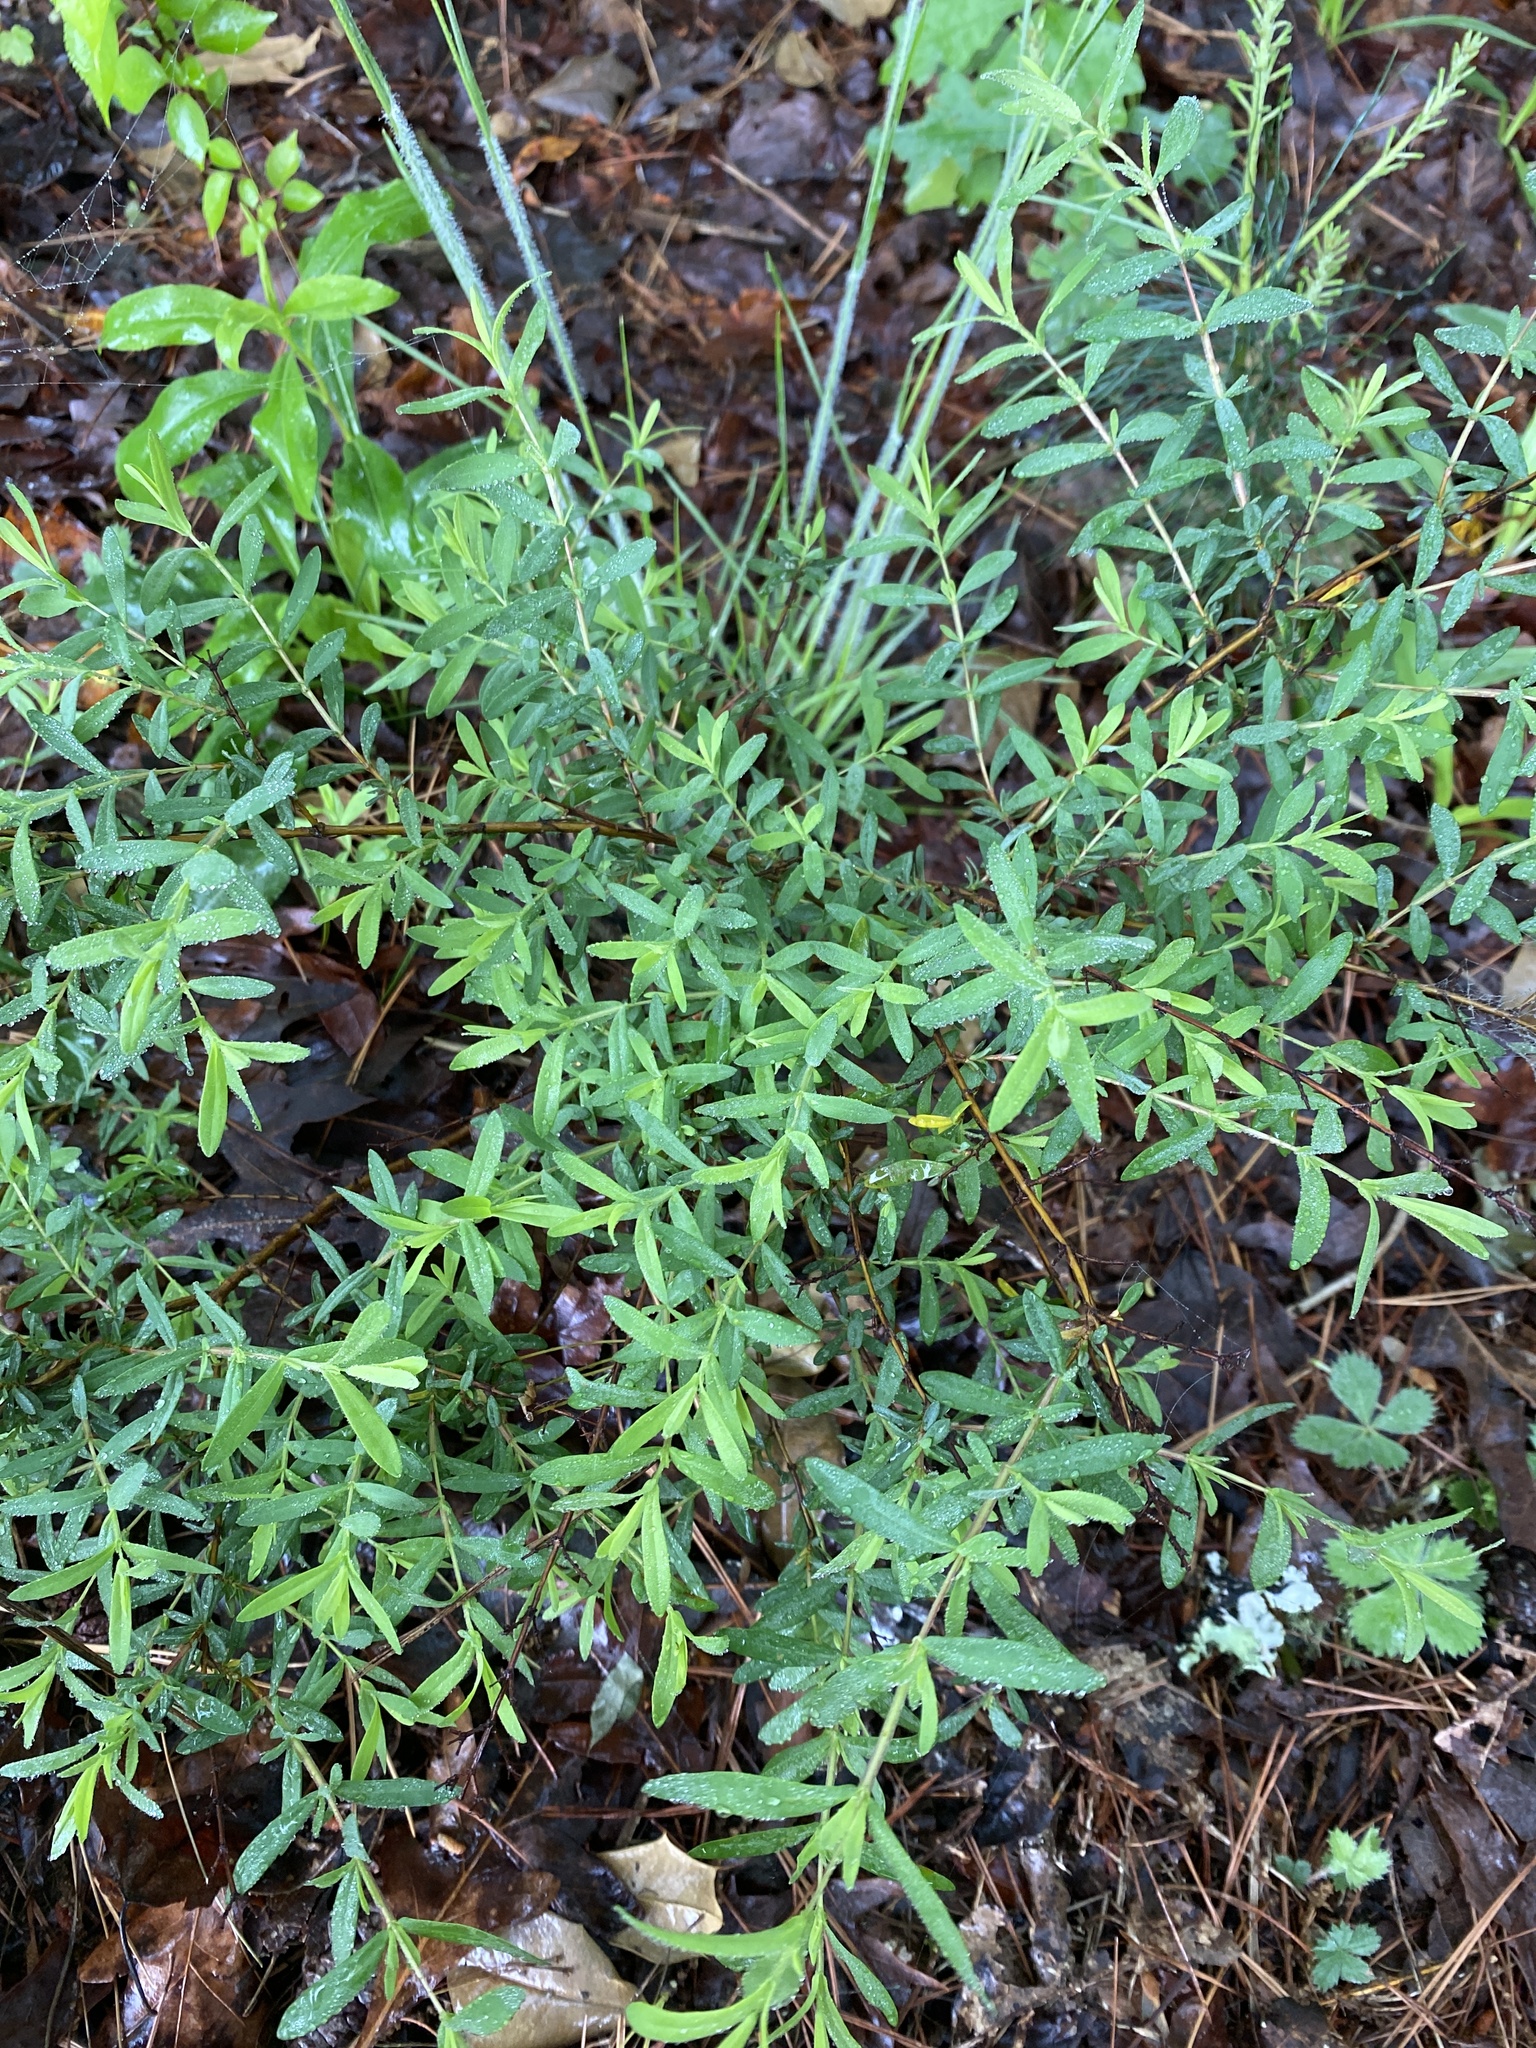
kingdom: Plantae
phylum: Tracheophyta
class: Magnoliopsida
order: Malpighiales
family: Hypericaceae
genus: Hypericum
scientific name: Hypericum hypericoides
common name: St. andrew's cross
